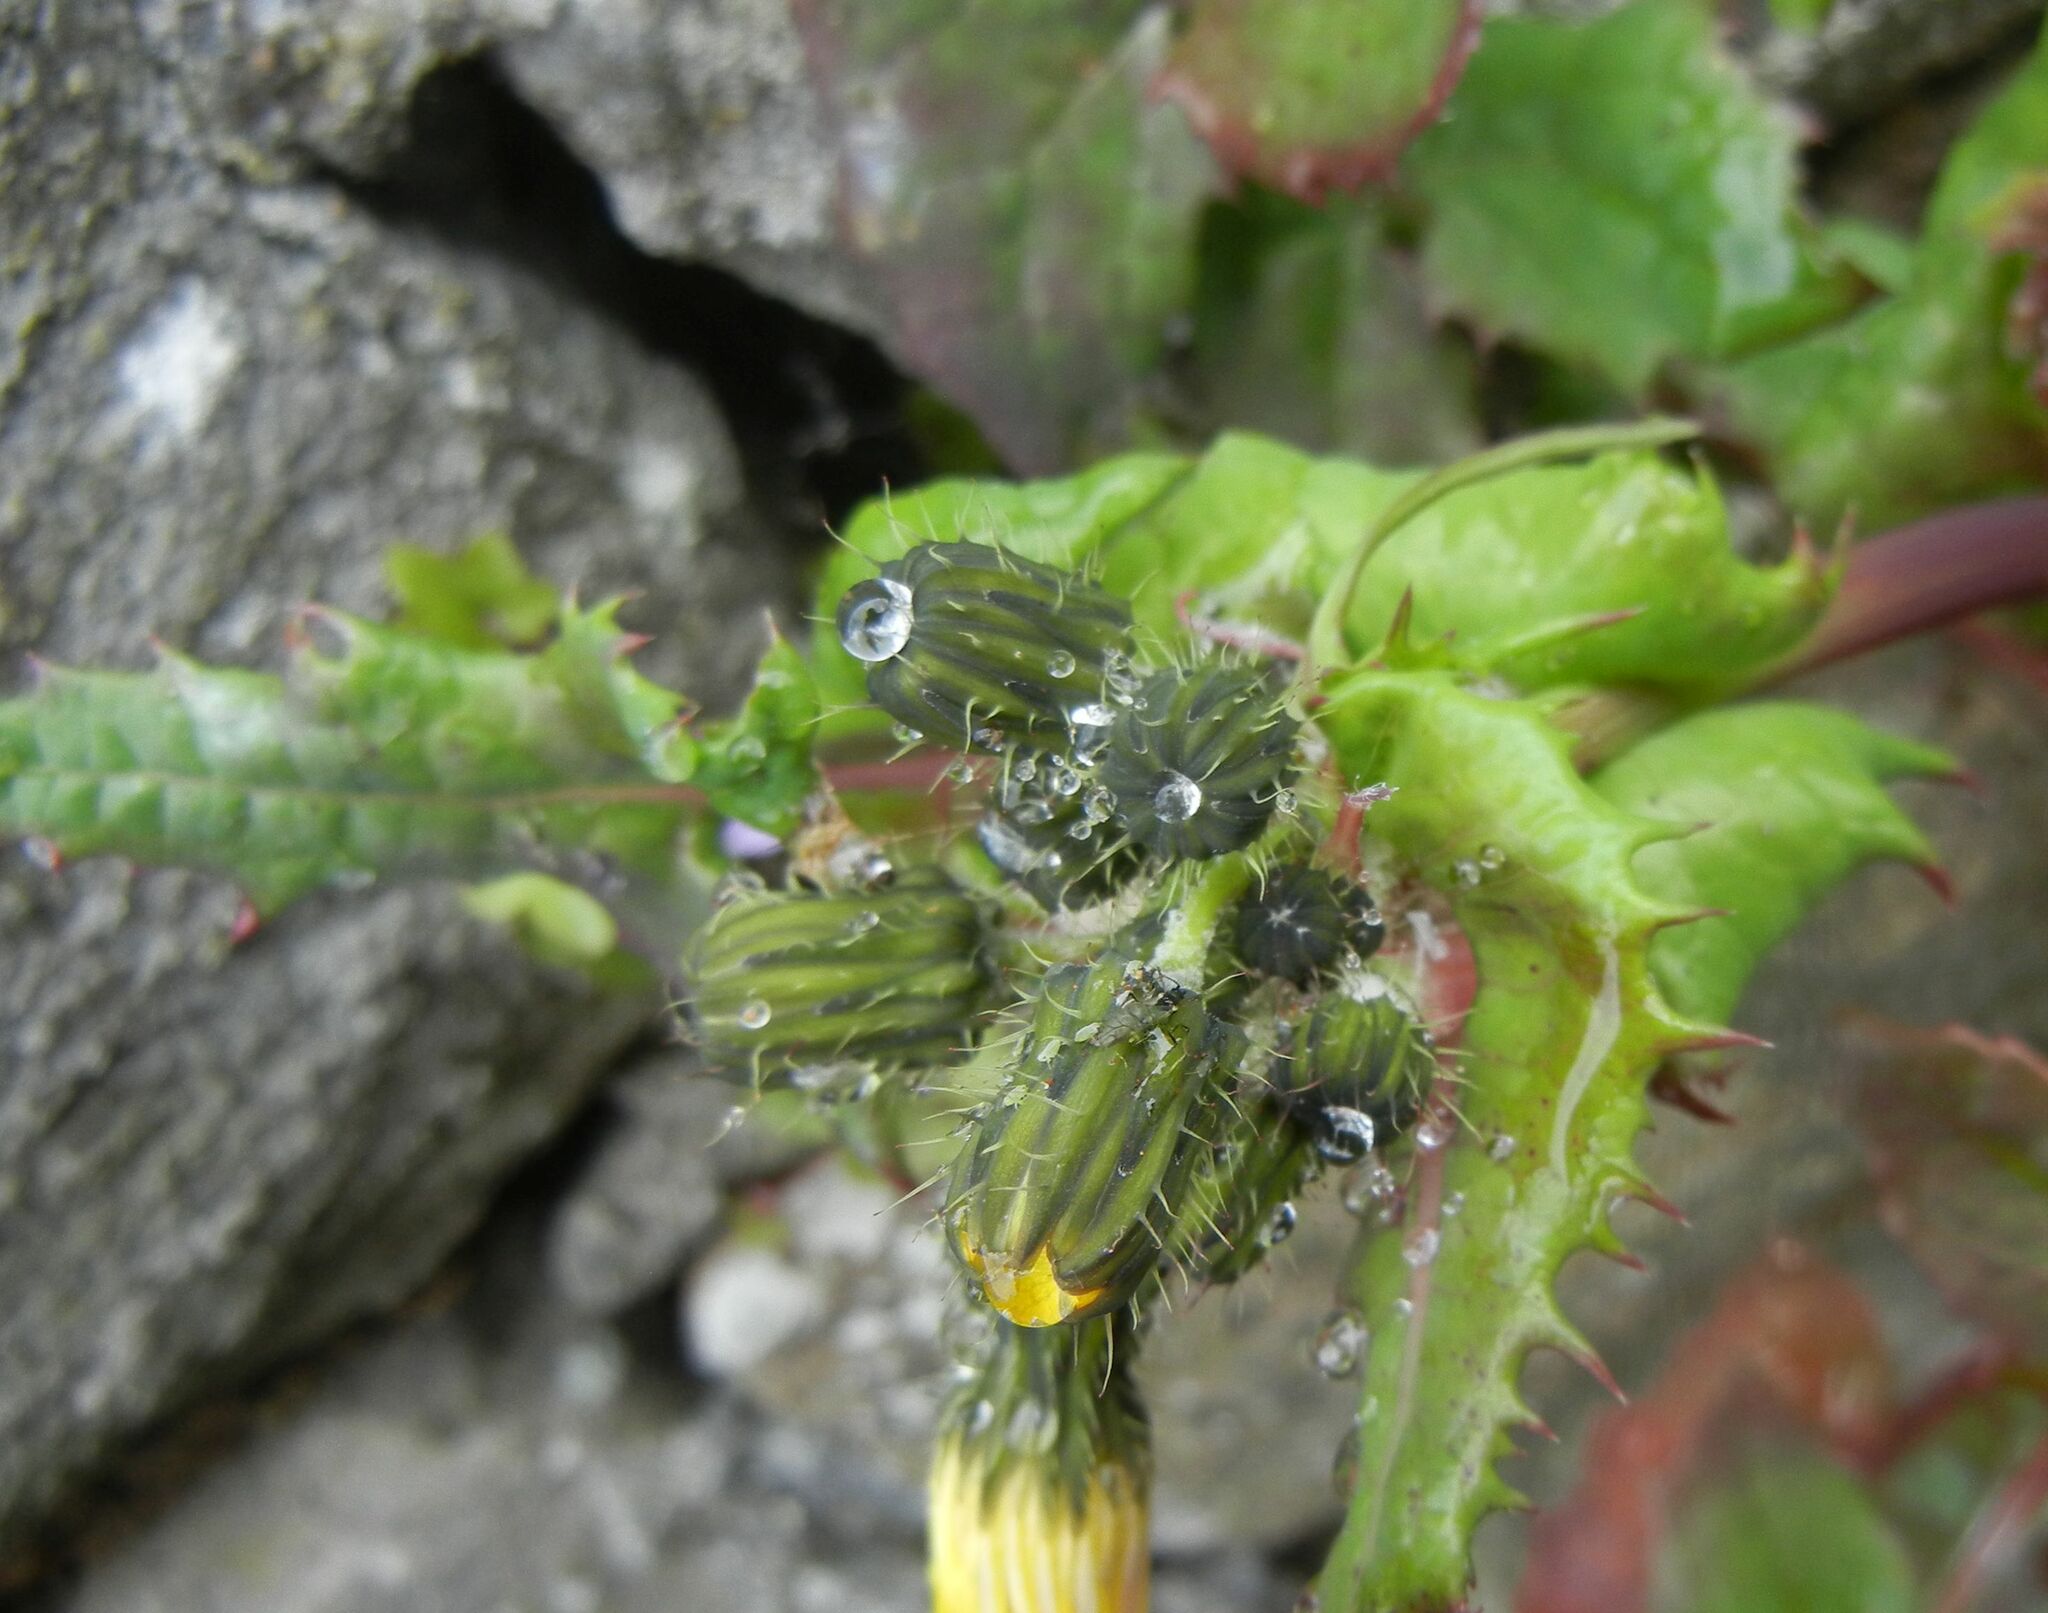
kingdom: Plantae
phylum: Tracheophyta
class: Magnoliopsida
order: Asterales
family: Asteraceae
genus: Sonchus
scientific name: Sonchus asper
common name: Prickly sow-thistle
